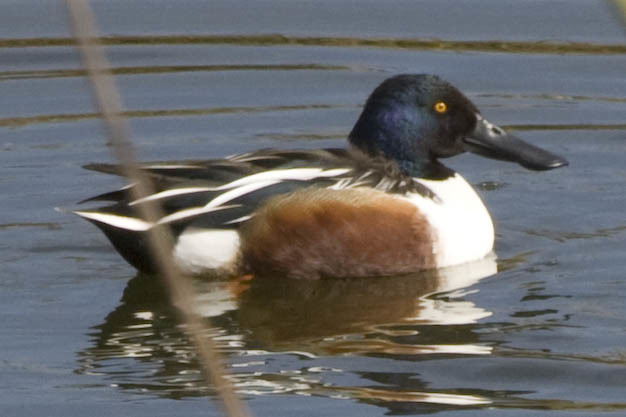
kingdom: Animalia
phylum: Chordata
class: Aves
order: Anseriformes
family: Anatidae
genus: Spatula
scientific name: Spatula clypeata
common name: Northern shoveler
